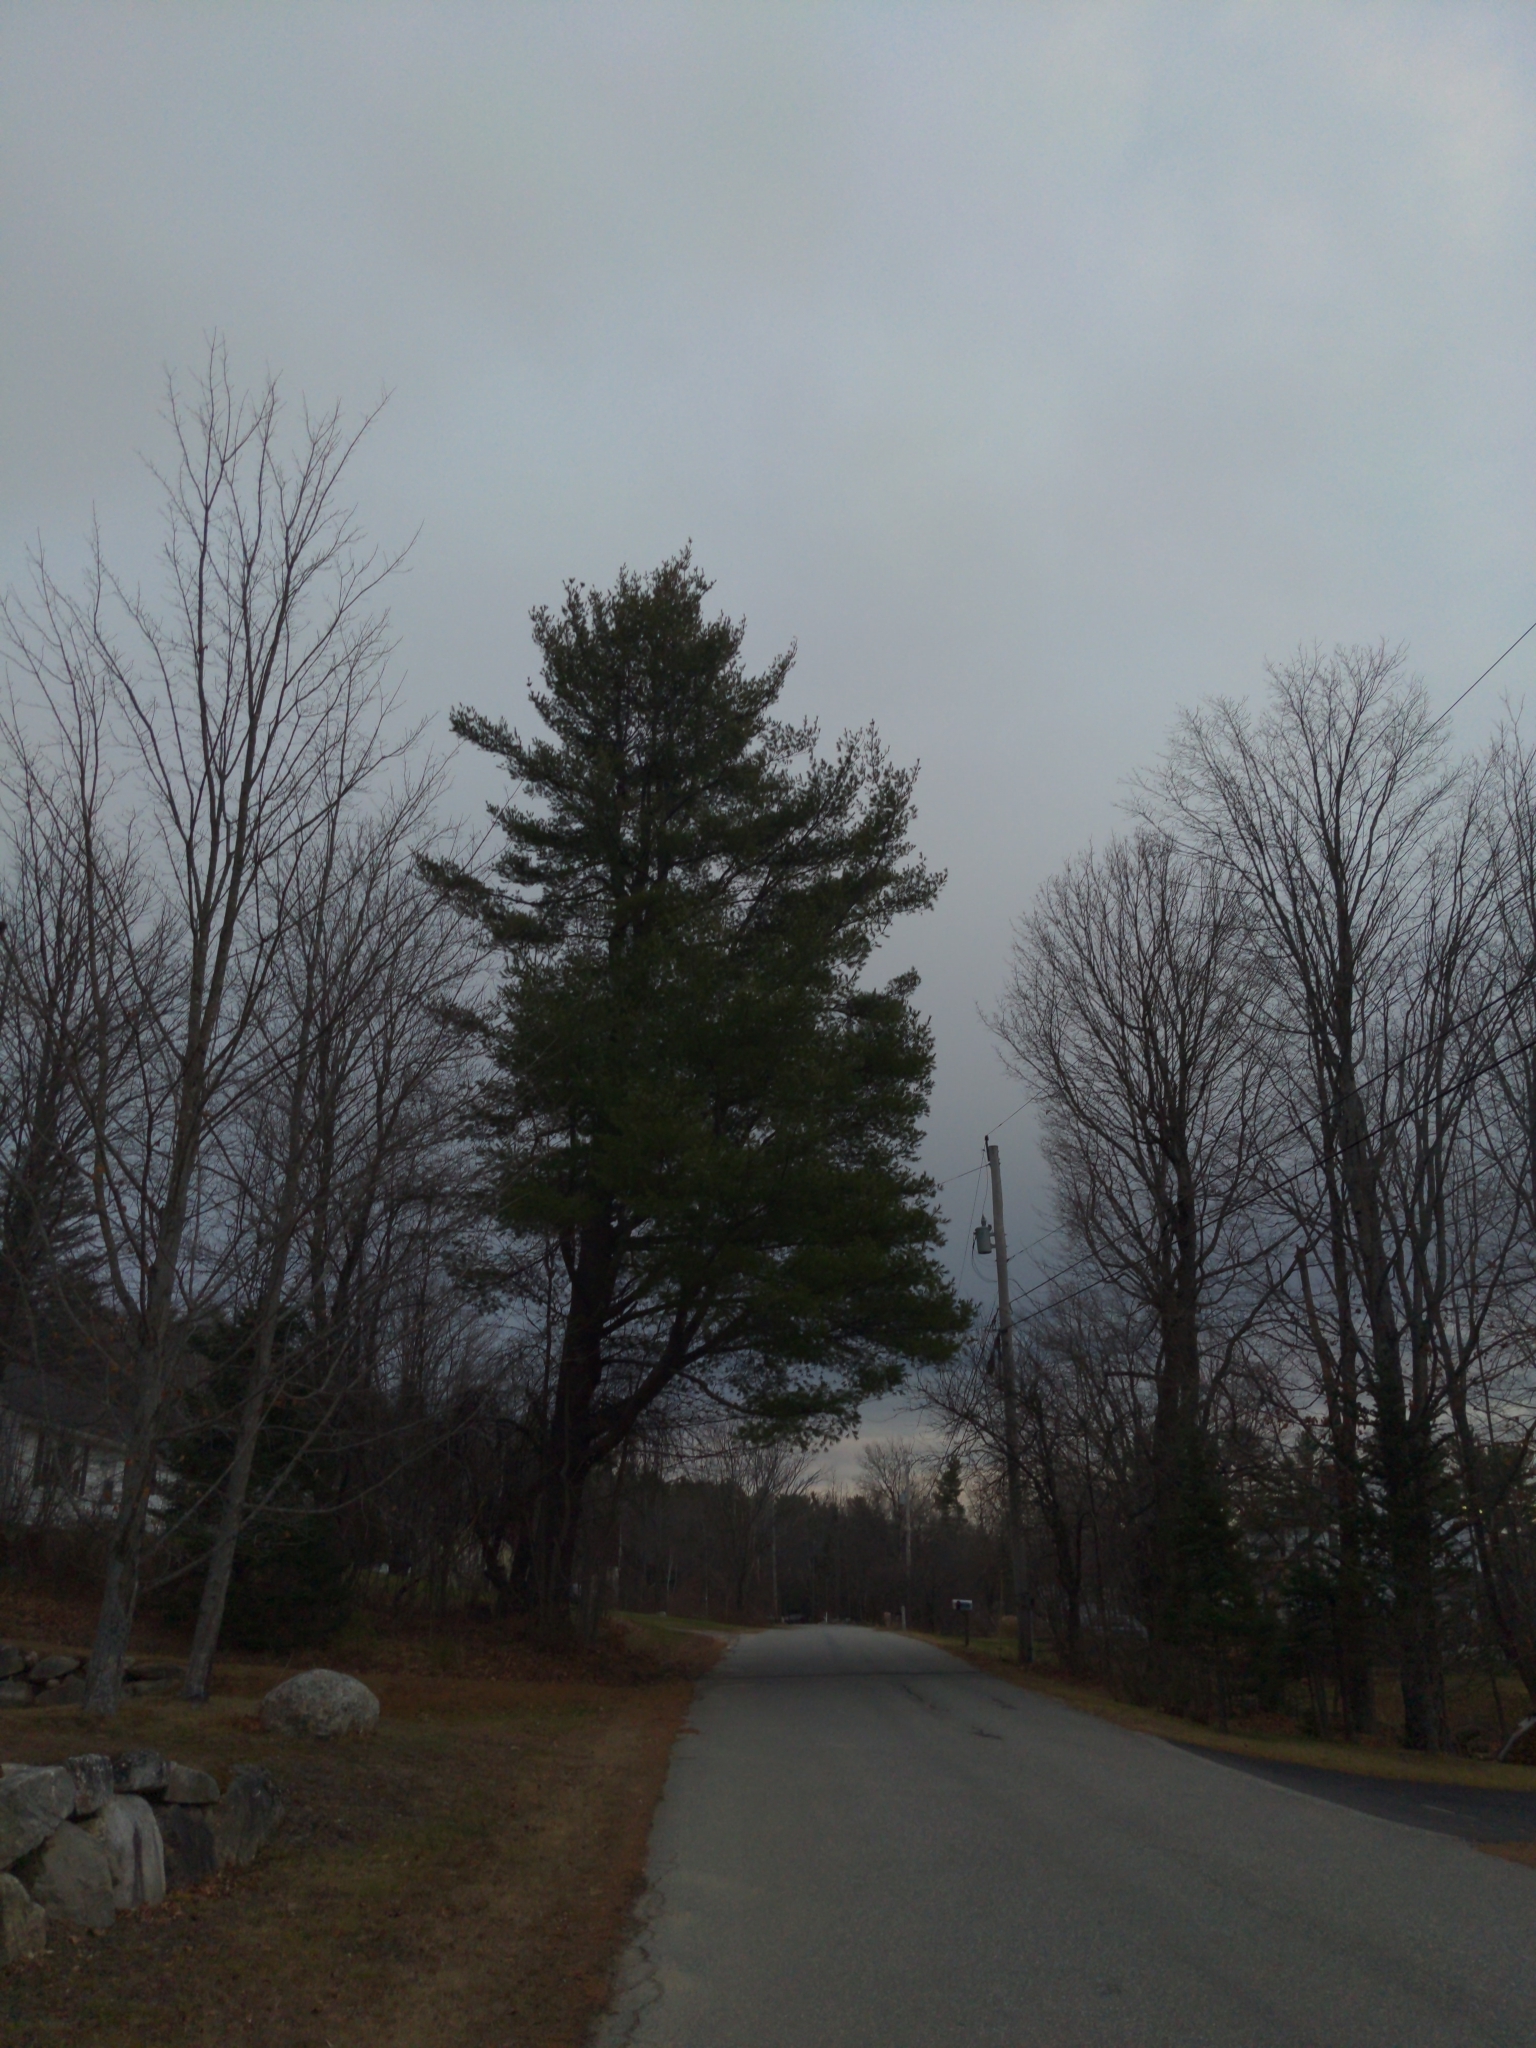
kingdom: Plantae
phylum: Tracheophyta
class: Pinopsida
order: Pinales
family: Pinaceae
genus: Pinus
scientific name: Pinus strobus
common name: Weymouth pine
